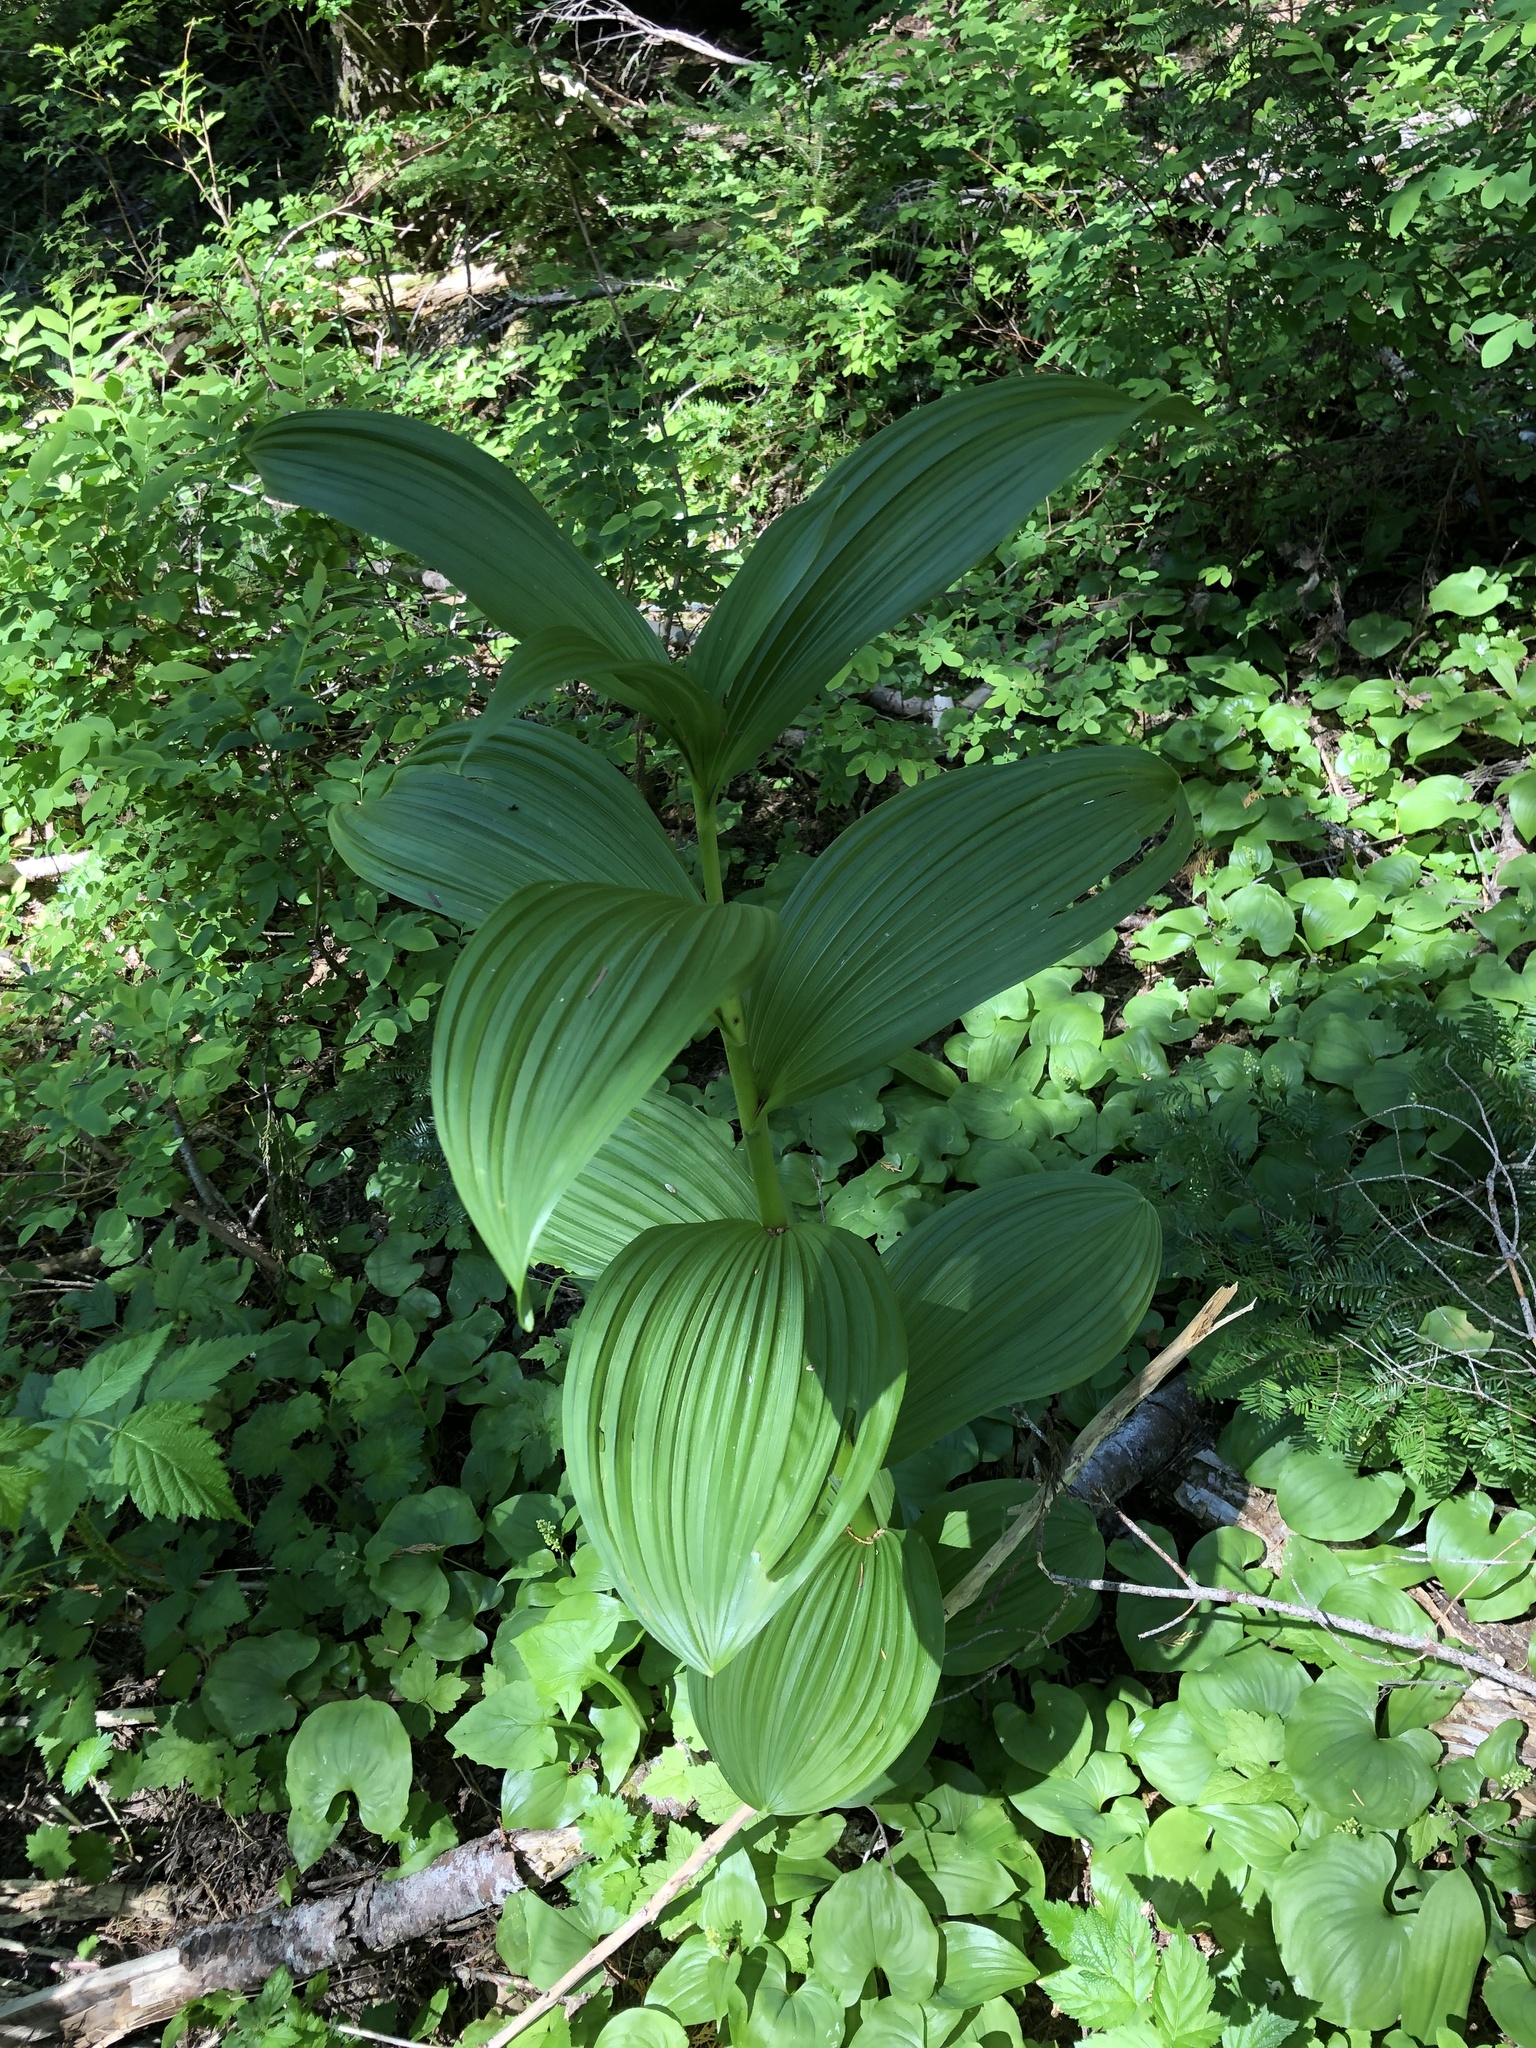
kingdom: Plantae
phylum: Tracheophyta
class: Liliopsida
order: Liliales
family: Melanthiaceae
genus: Veratrum
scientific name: Veratrum viride
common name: American false hellebore
